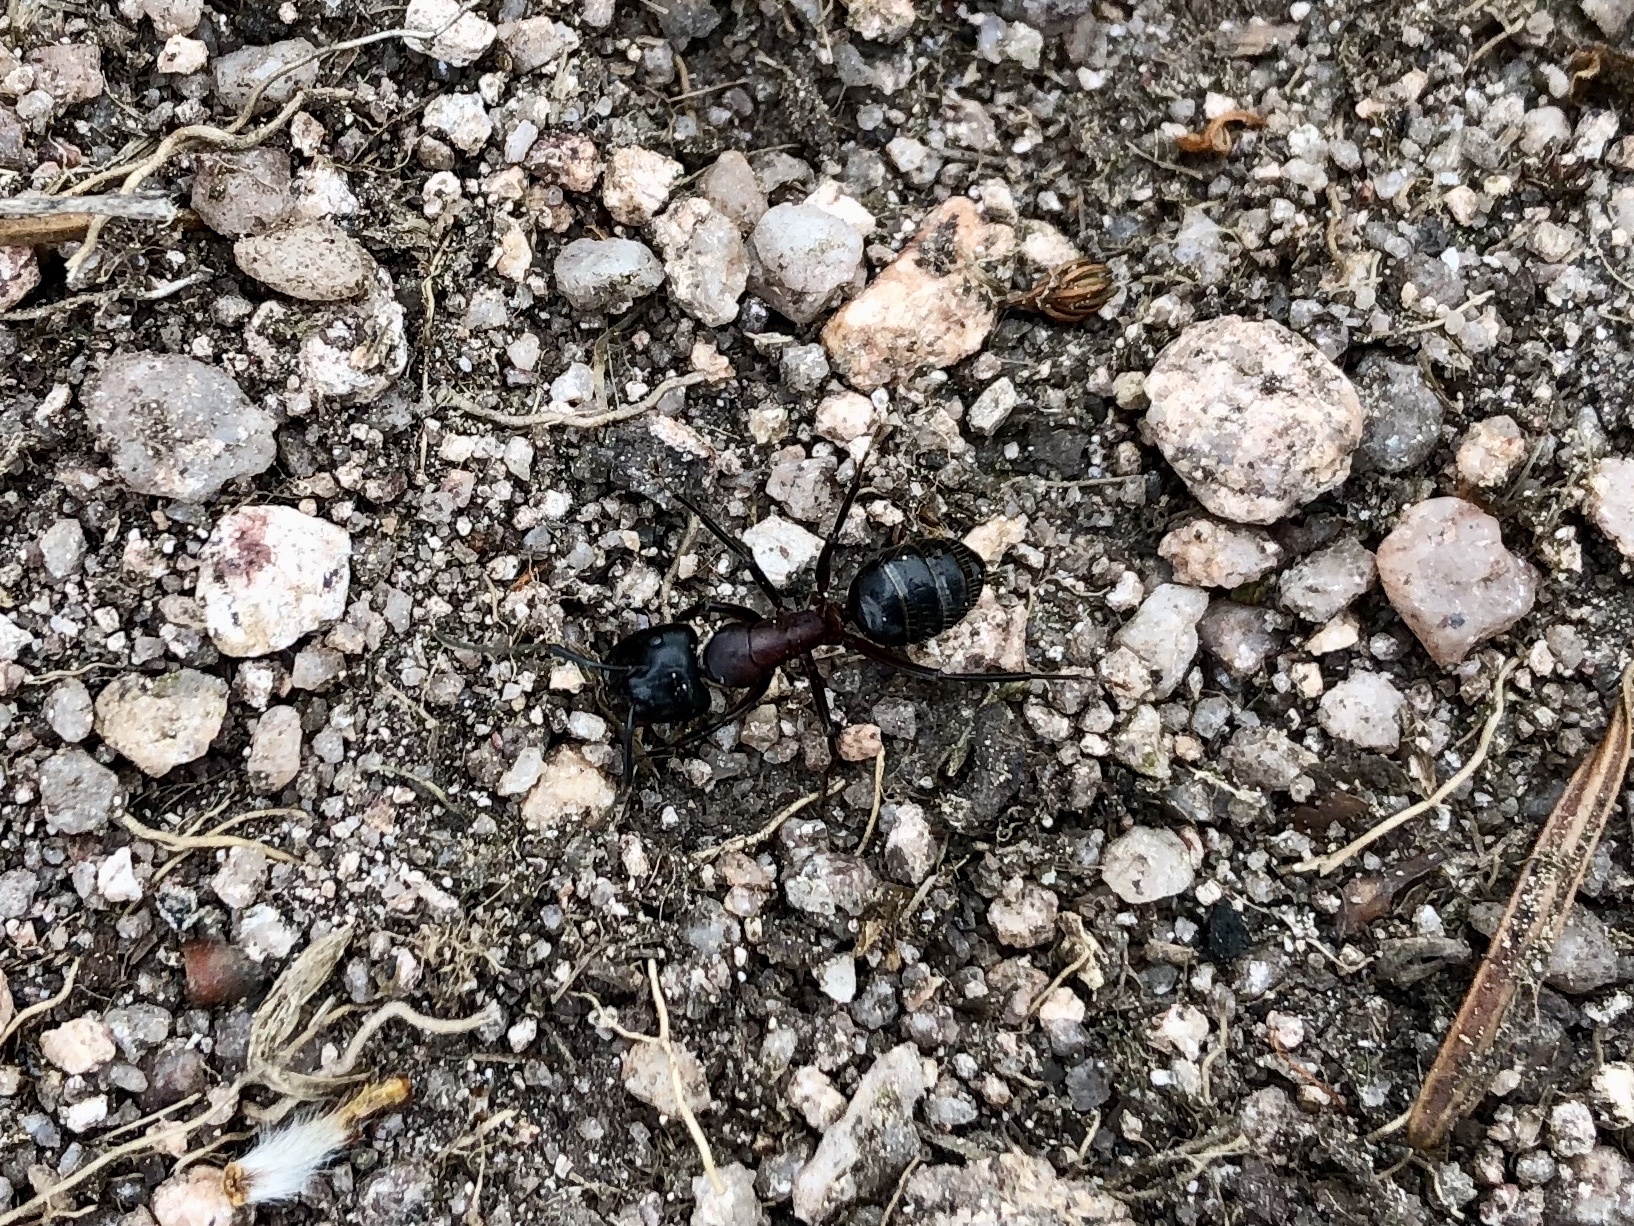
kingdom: Animalia
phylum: Arthropoda
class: Insecta
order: Hymenoptera
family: Formicidae
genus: Camponotus
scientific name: Camponotus herculeanus
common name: Hercules ant
